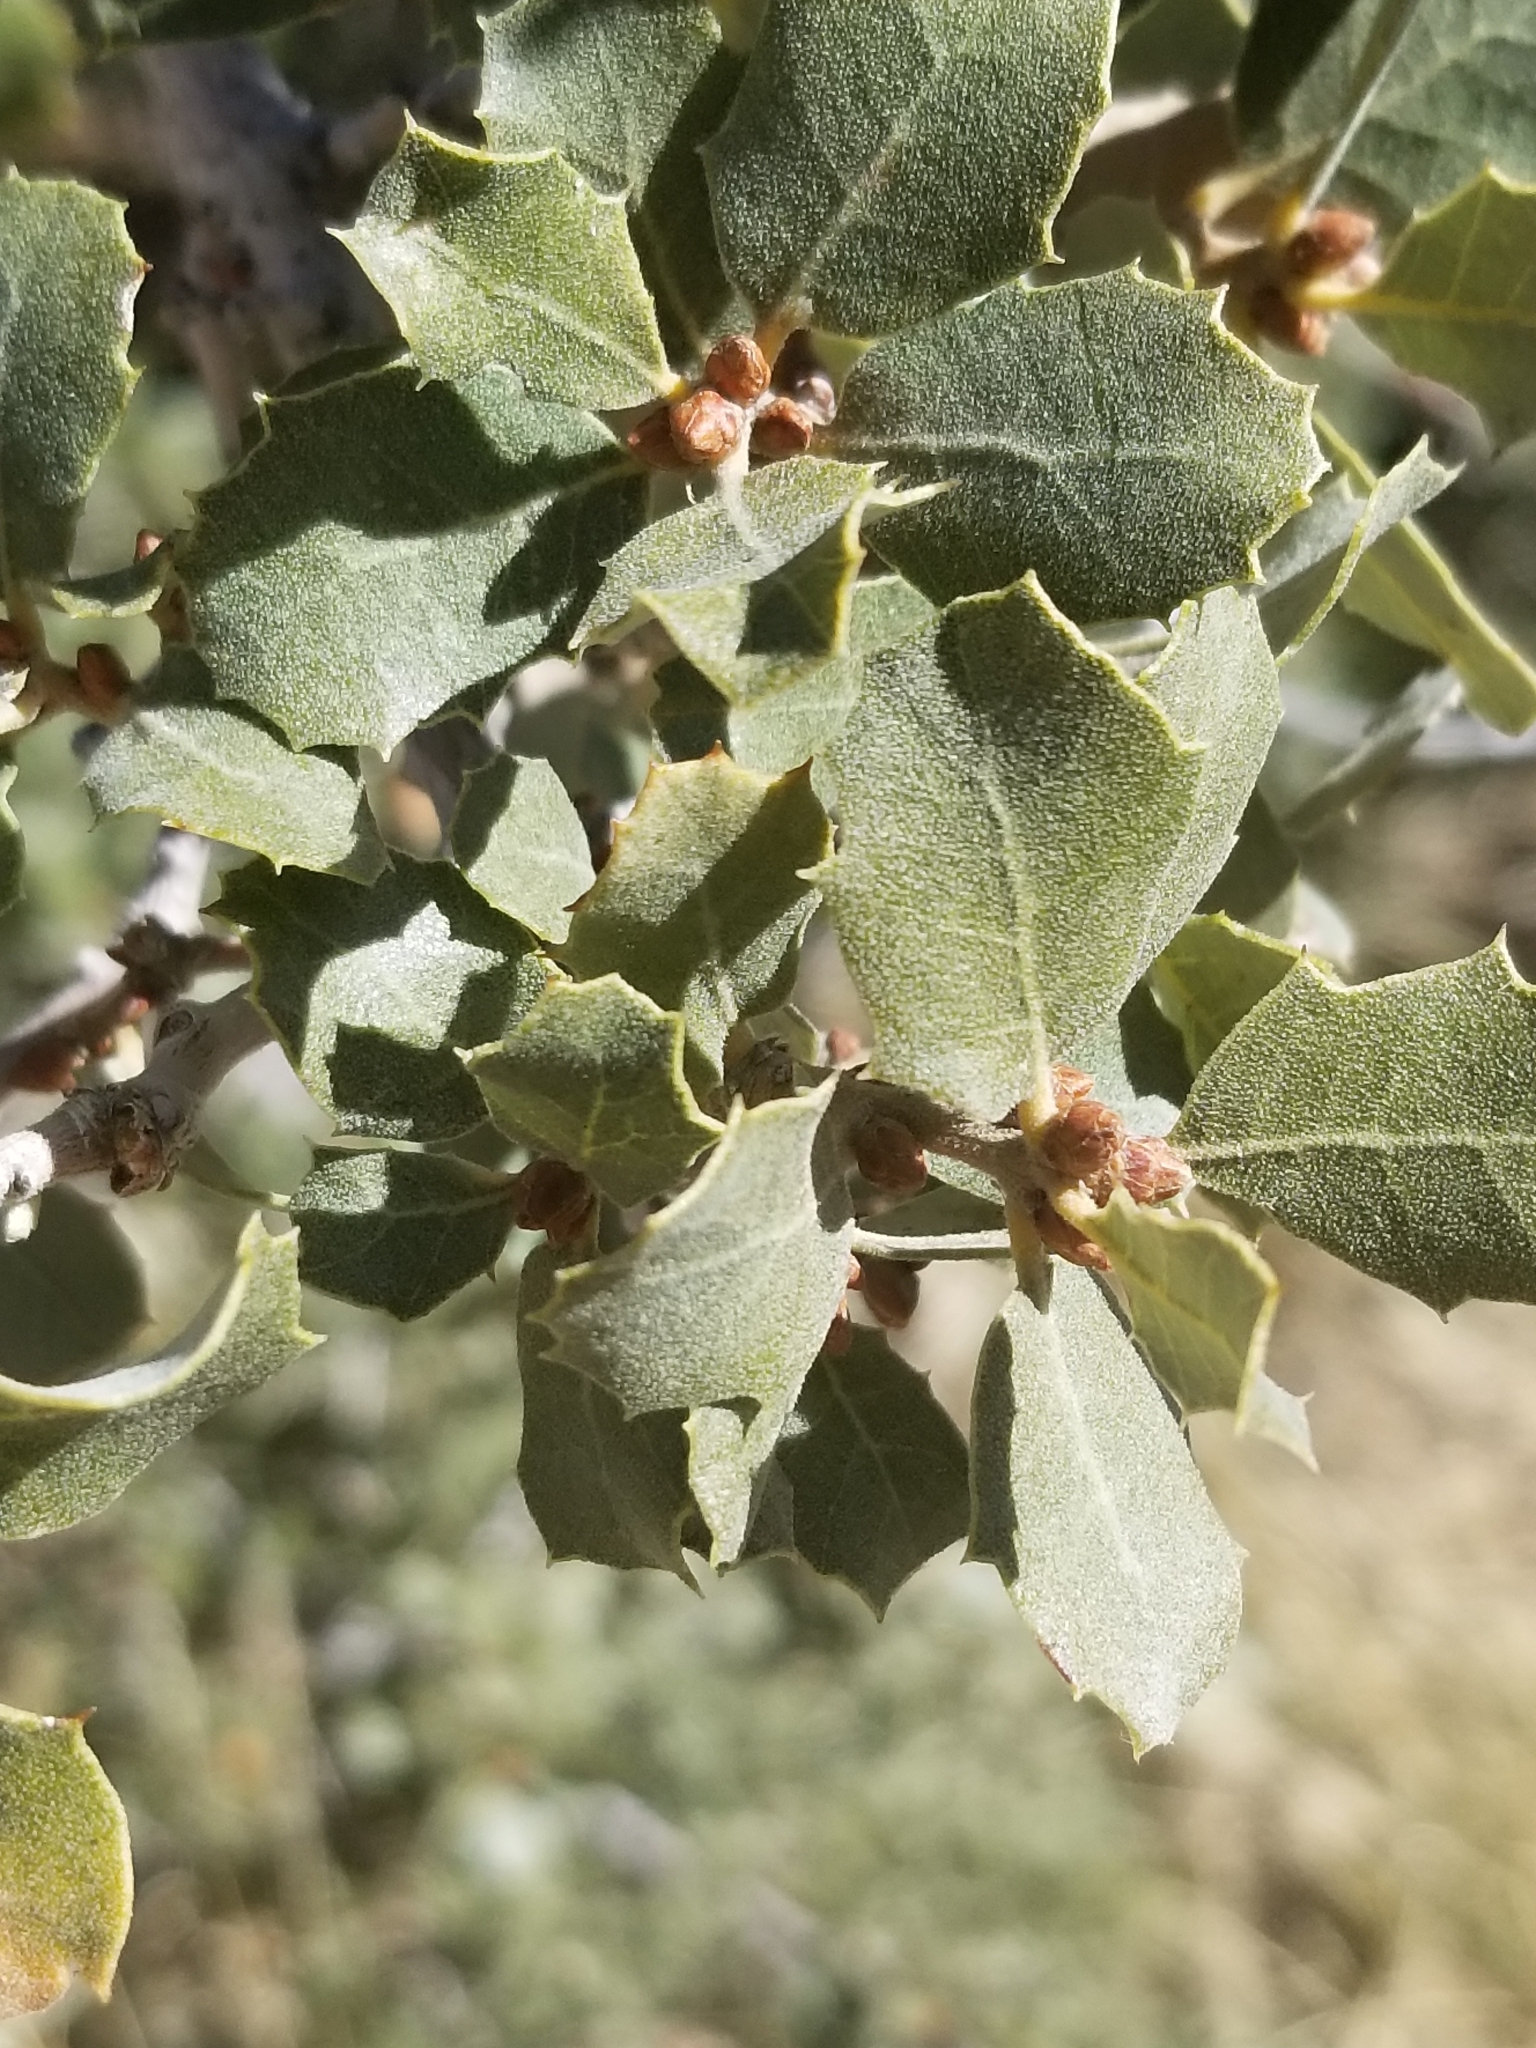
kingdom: Plantae
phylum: Tracheophyta
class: Magnoliopsida
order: Fagales
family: Fagaceae
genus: Quercus
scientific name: Quercus cornelius-mulleri
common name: Muller oak
